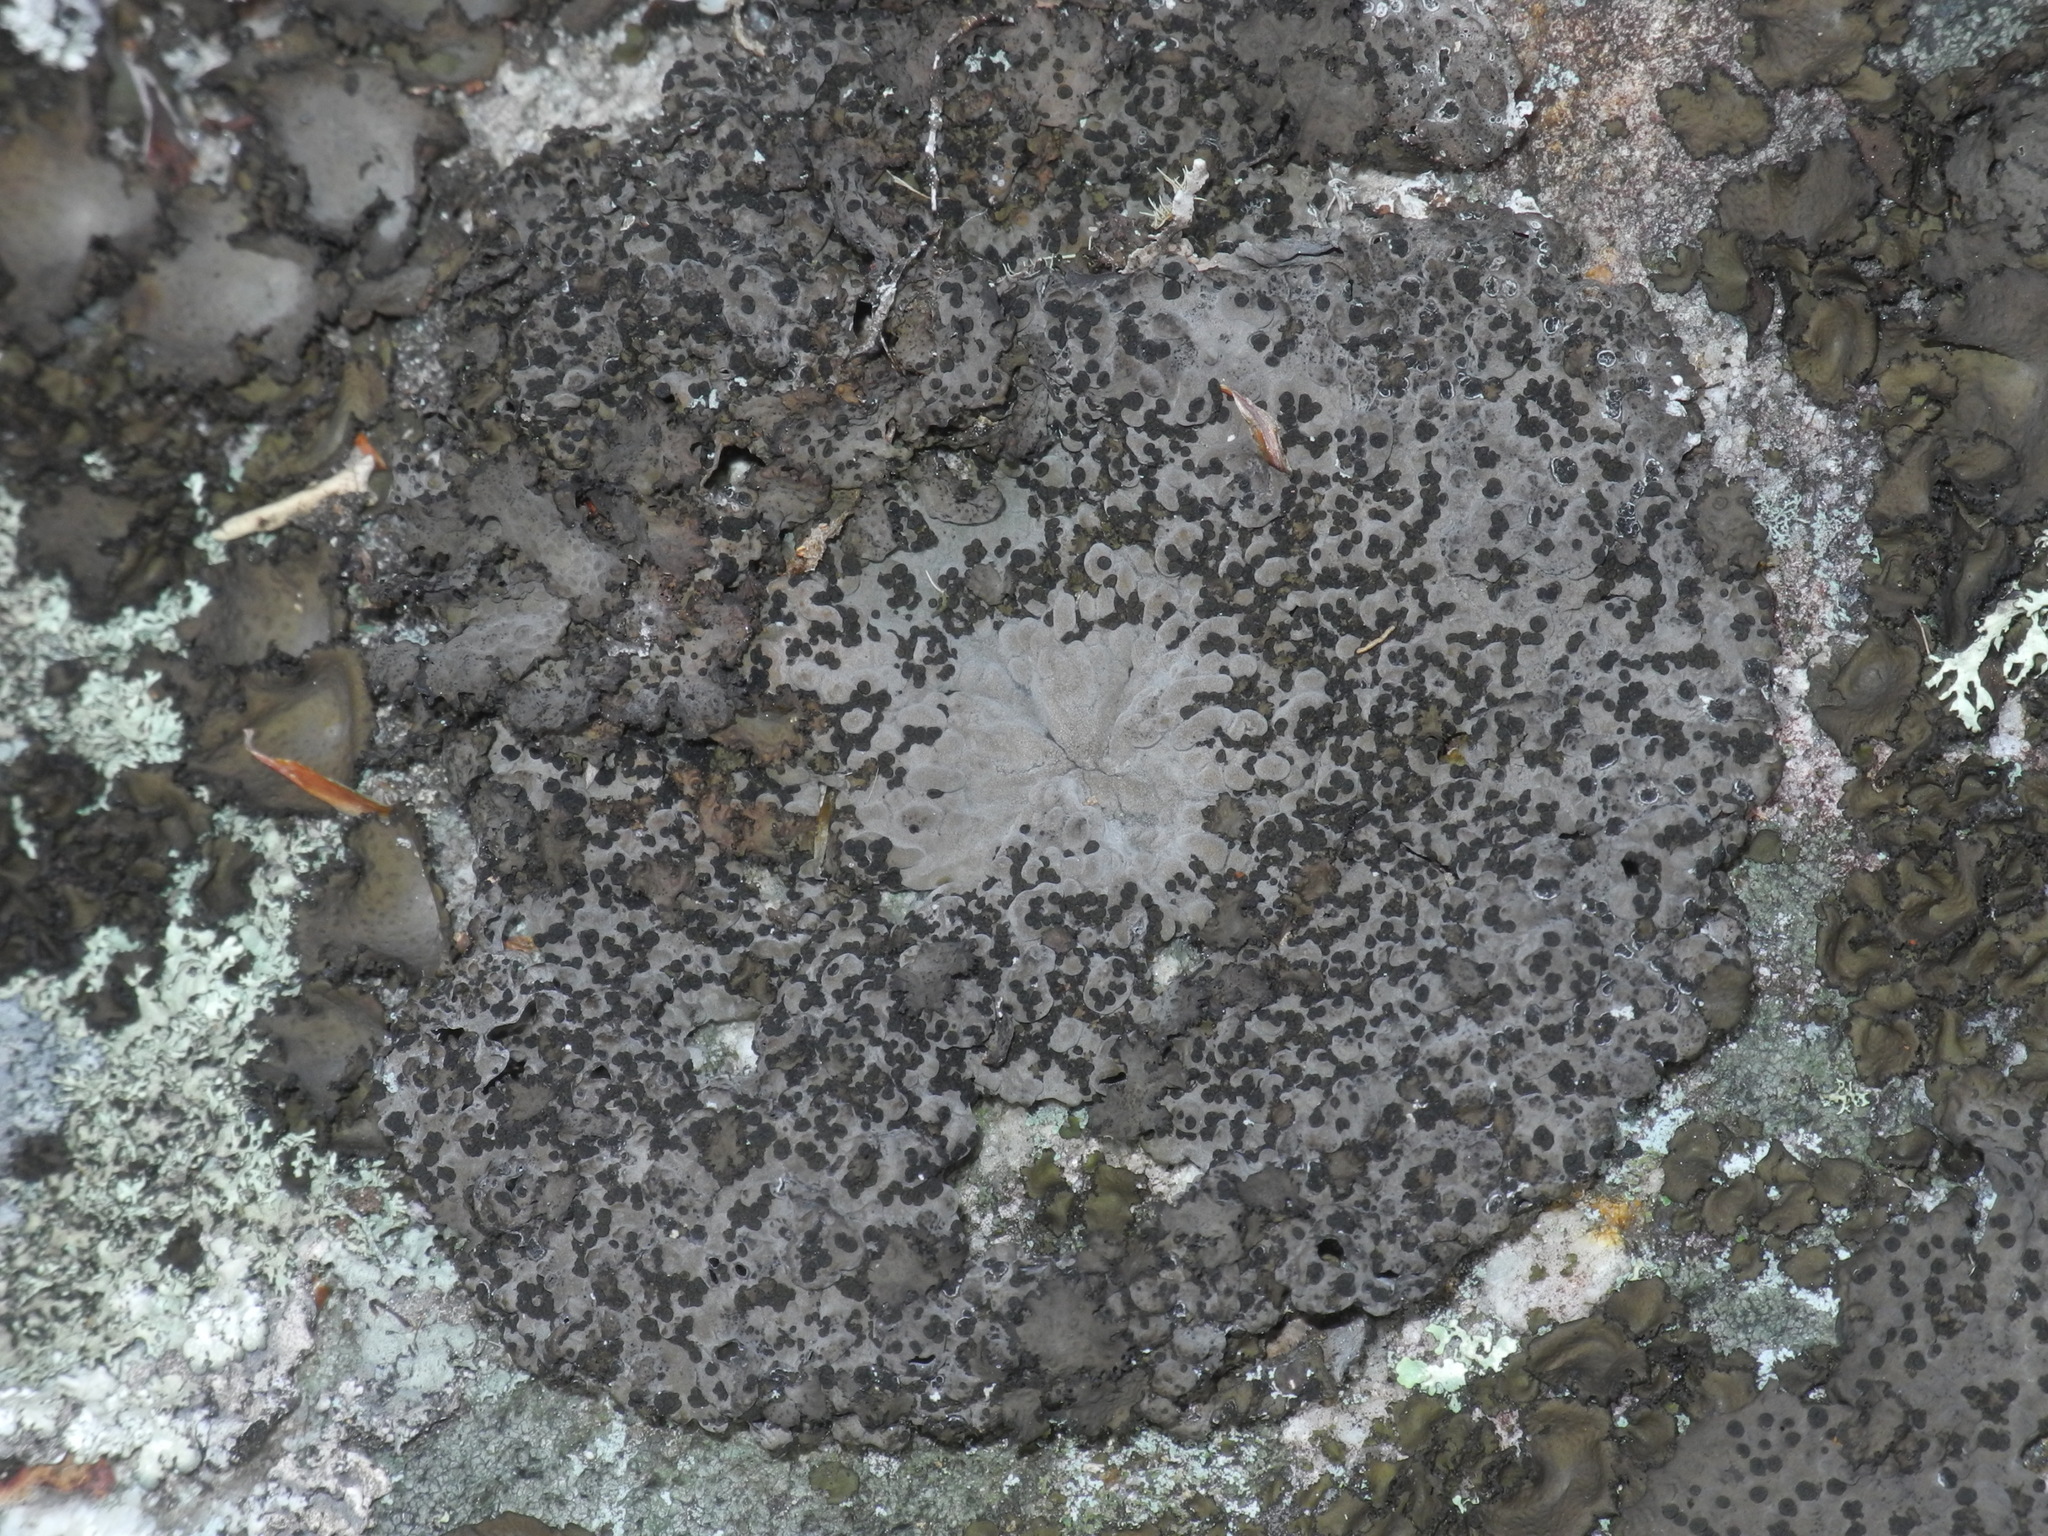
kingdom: Fungi
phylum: Ascomycota
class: Lecanoromycetes
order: Umbilicariales
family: Umbilicariaceae
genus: Lasallia
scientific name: Lasallia papulosa
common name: Common toadskin lichen
